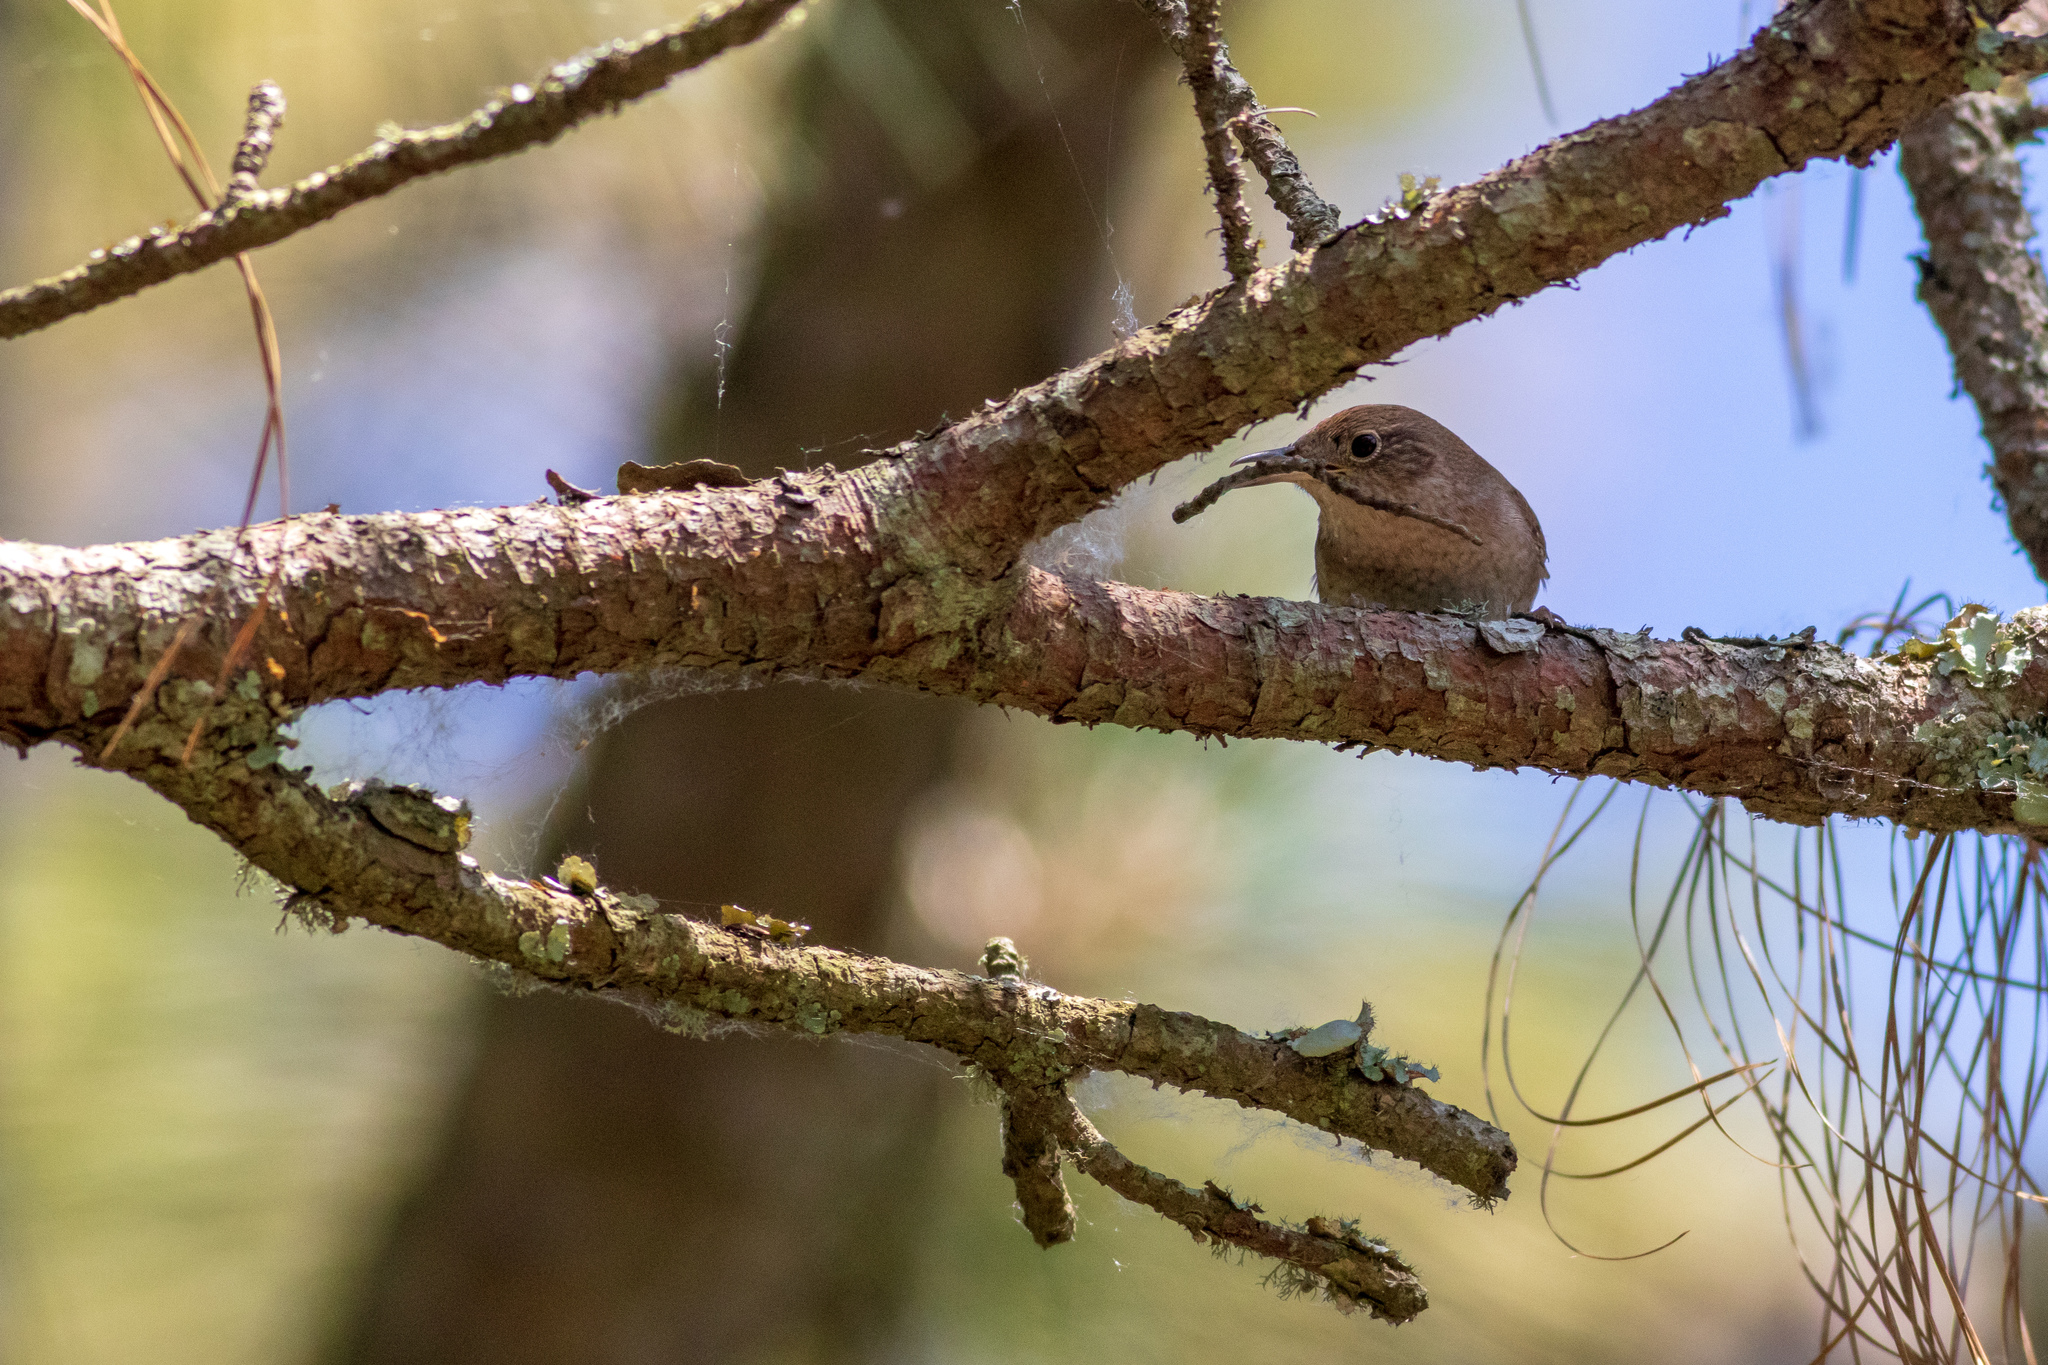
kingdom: Animalia
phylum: Chordata
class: Aves
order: Passeriformes
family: Troglodytidae
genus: Troglodytes
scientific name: Troglodytes aedon
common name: House wren
